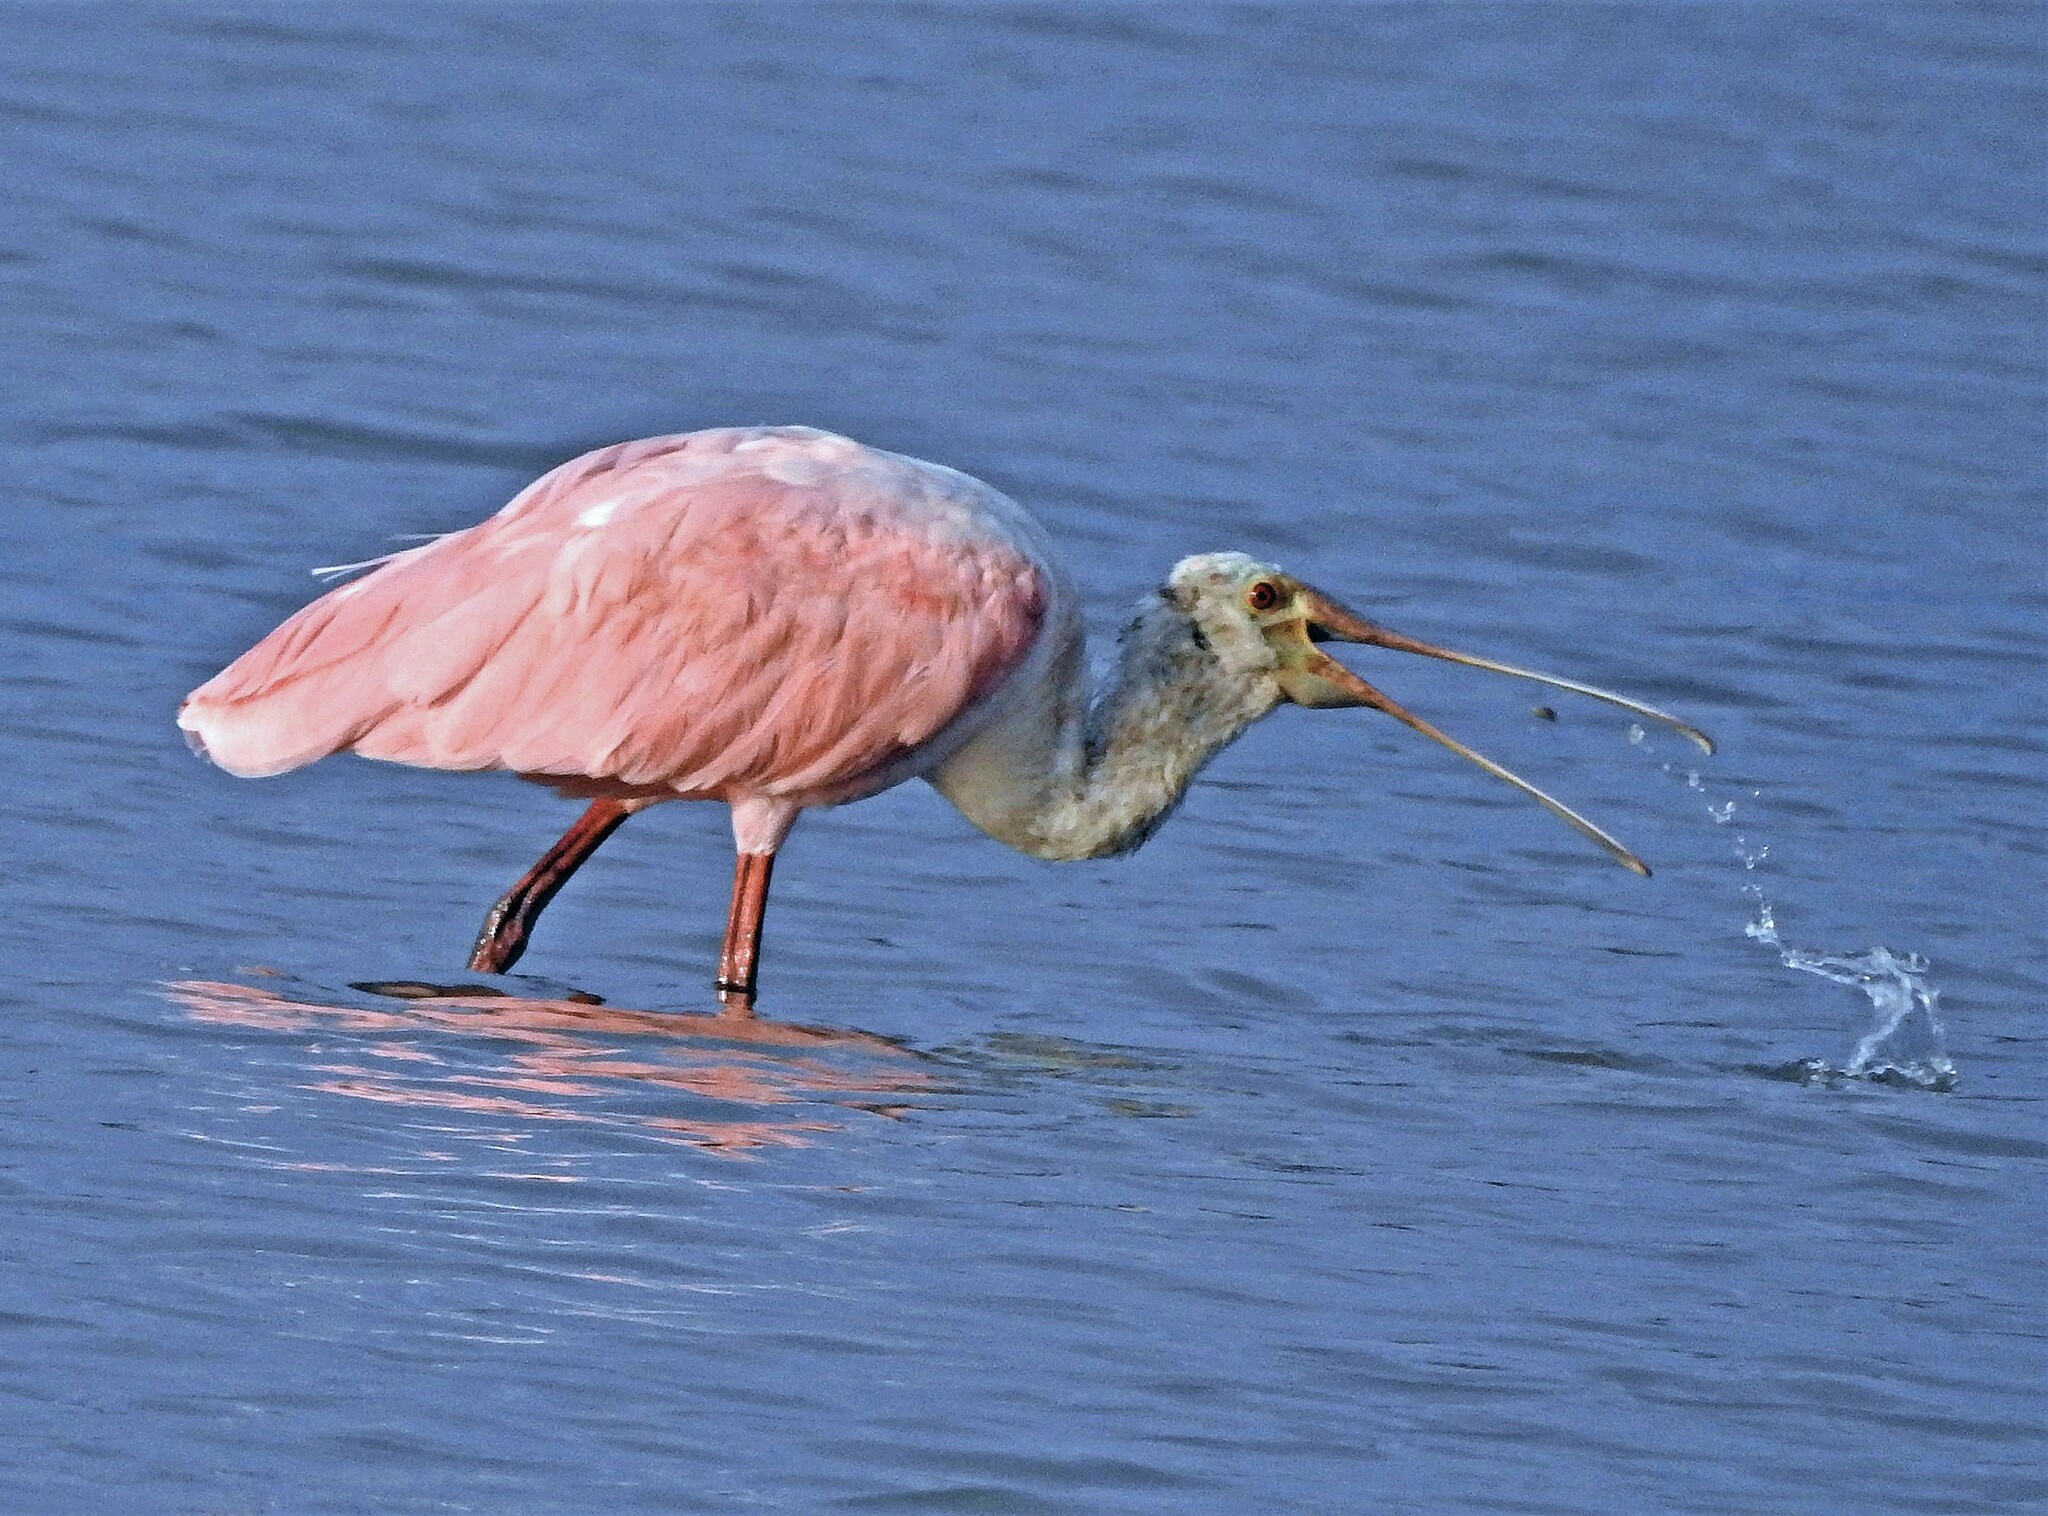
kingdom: Animalia
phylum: Chordata
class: Aves
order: Pelecaniformes
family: Threskiornithidae
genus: Platalea
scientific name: Platalea ajaja
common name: Roseate spoonbill
